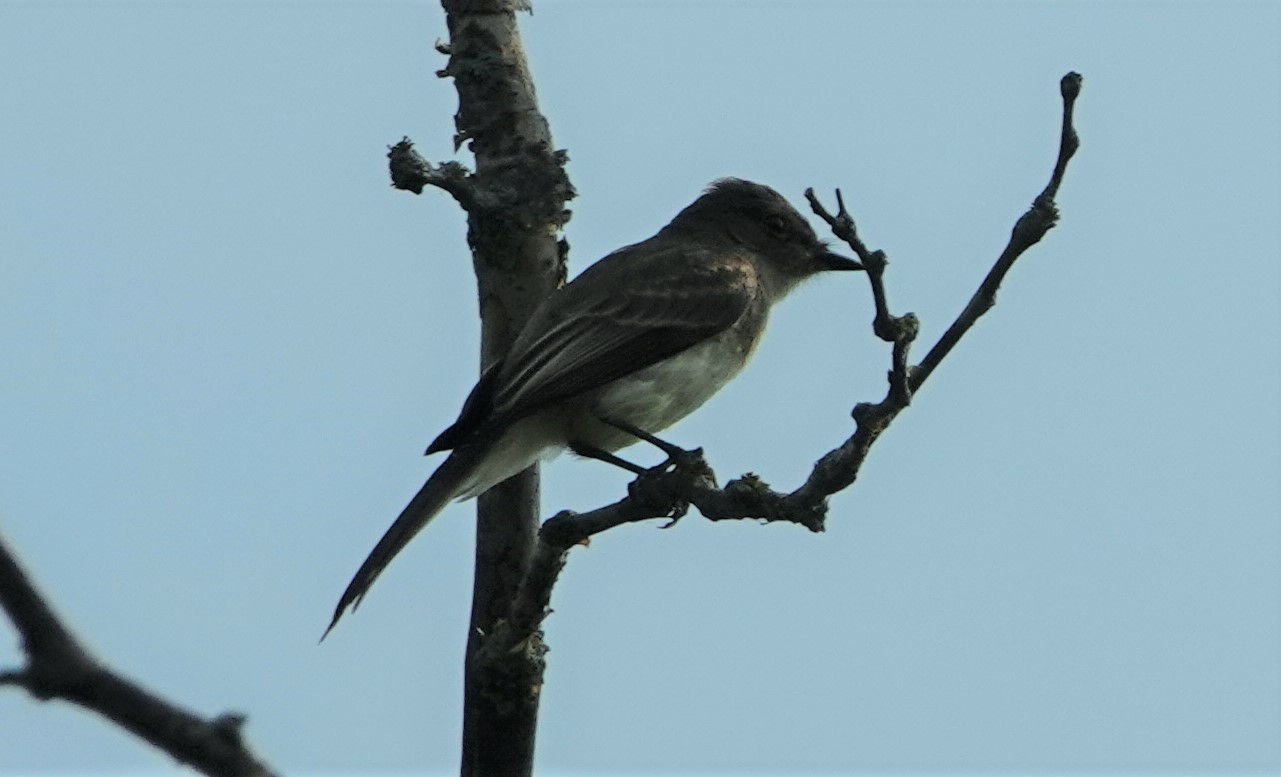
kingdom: Animalia
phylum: Chordata
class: Aves
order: Passeriformes
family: Tyrannidae
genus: Sayornis
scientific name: Sayornis phoebe
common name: Eastern phoebe
